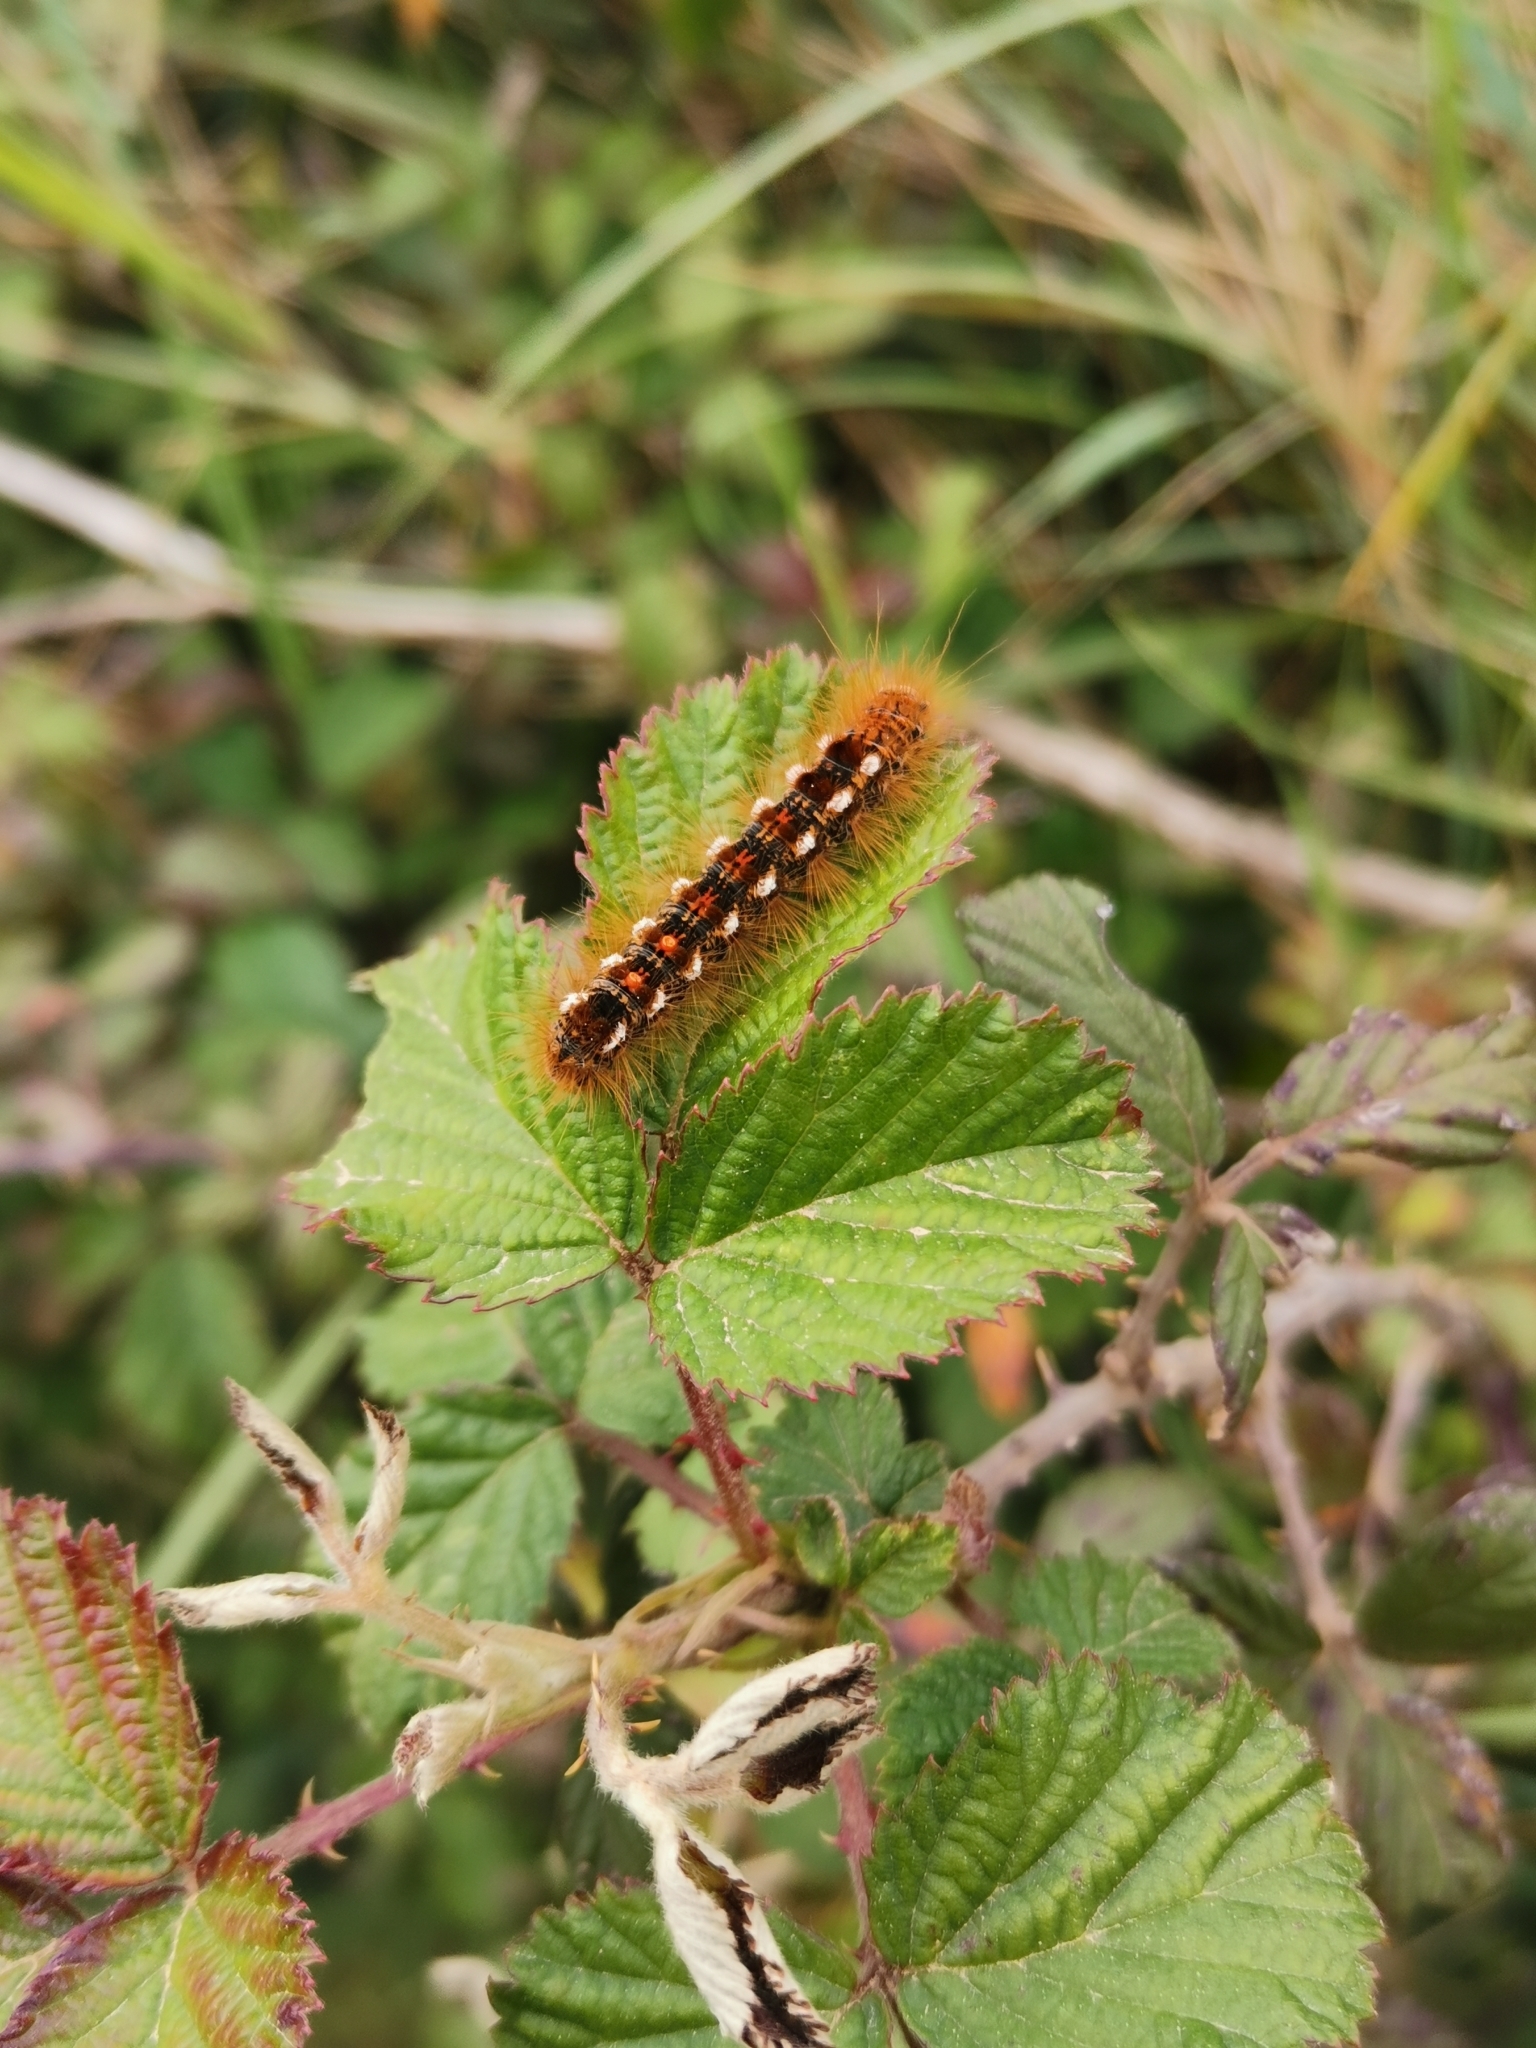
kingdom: Animalia
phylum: Arthropoda
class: Insecta
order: Lepidoptera
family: Erebidae
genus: Euproctis
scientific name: Euproctis chrysorrhoea
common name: Brown-tail
